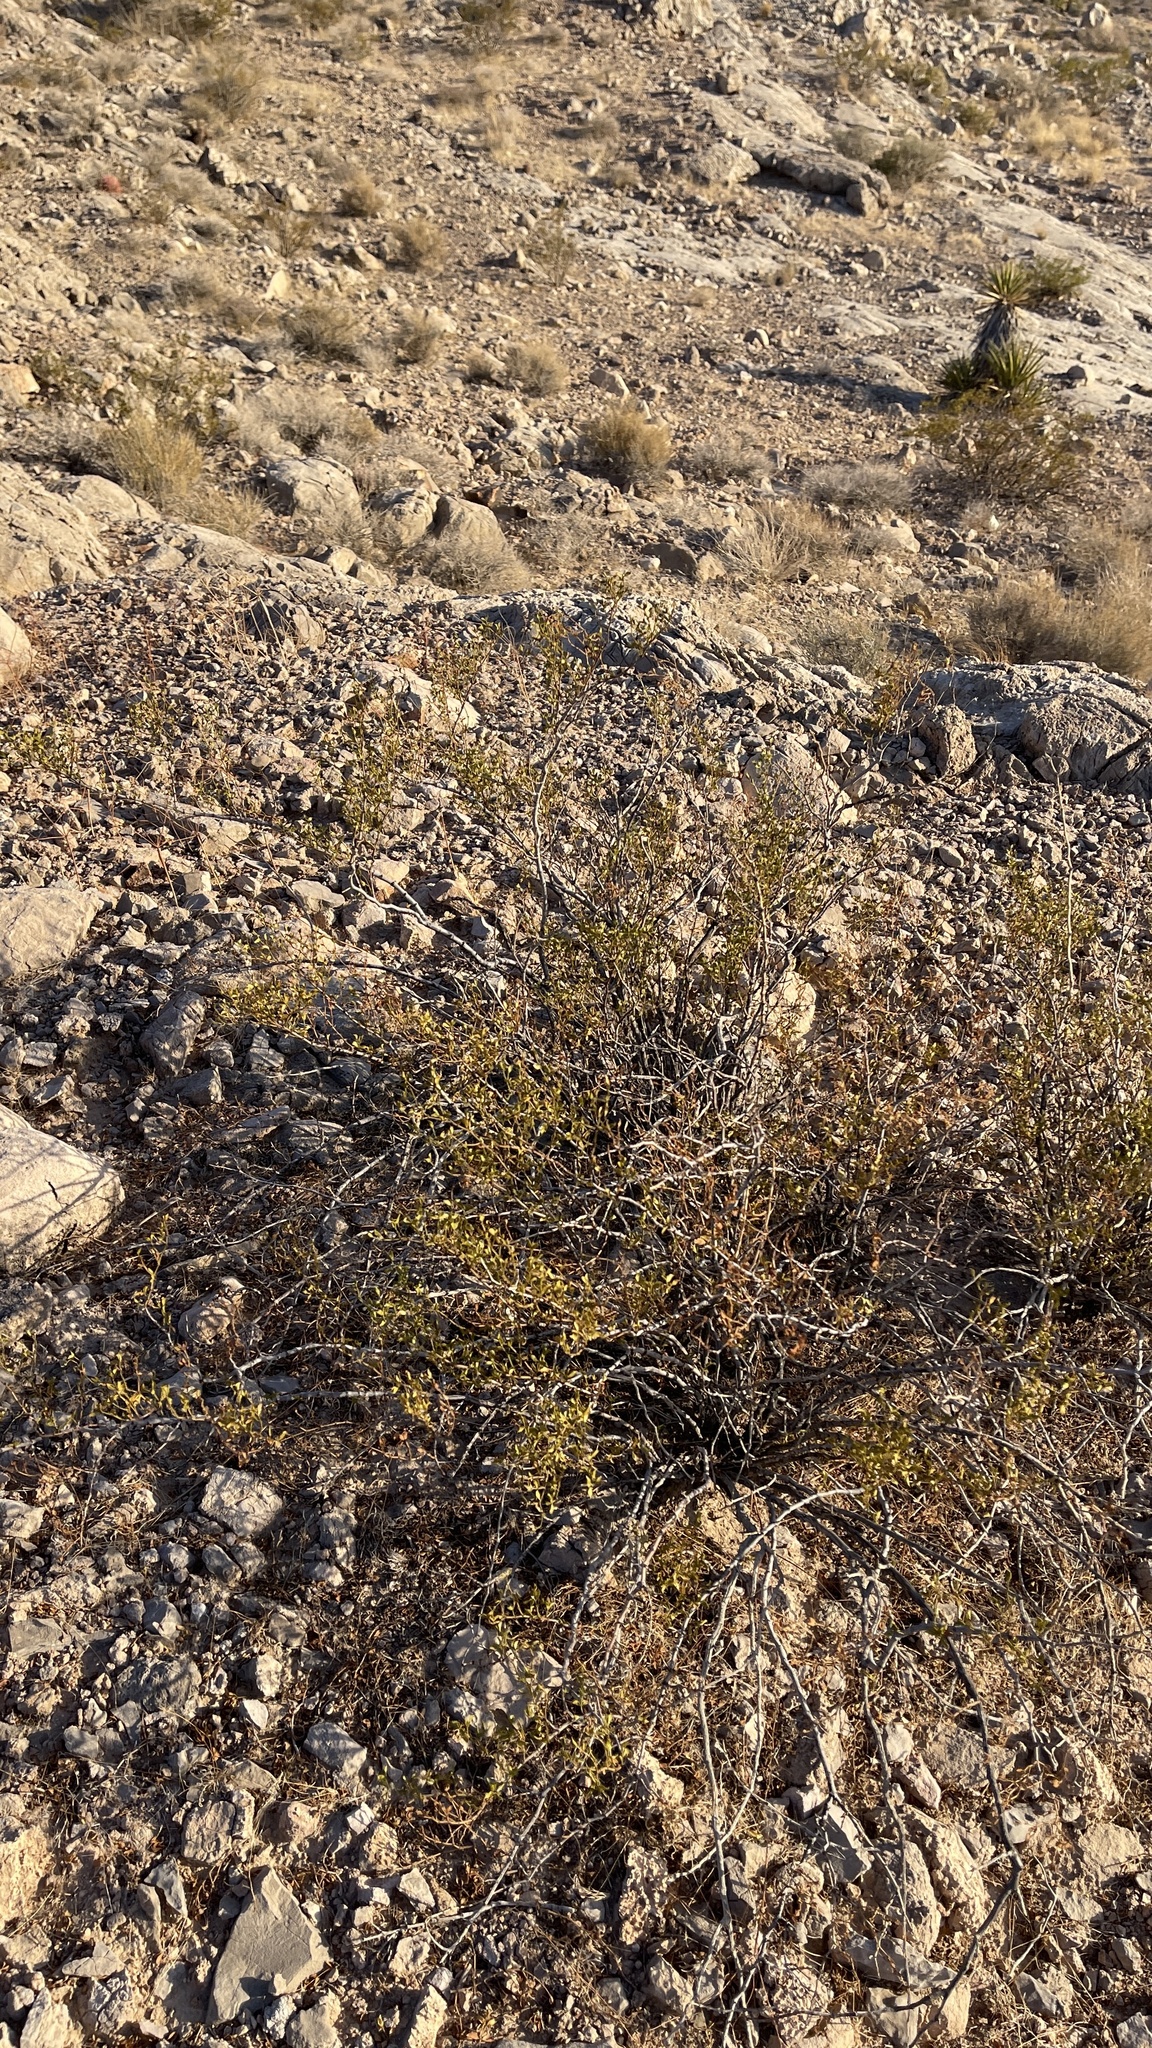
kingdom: Plantae
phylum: Tracheophyta
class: Magnoliopsida
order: Zygophyllales
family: Zygophyllaceae
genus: Larrea
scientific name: Larrea tridentata
